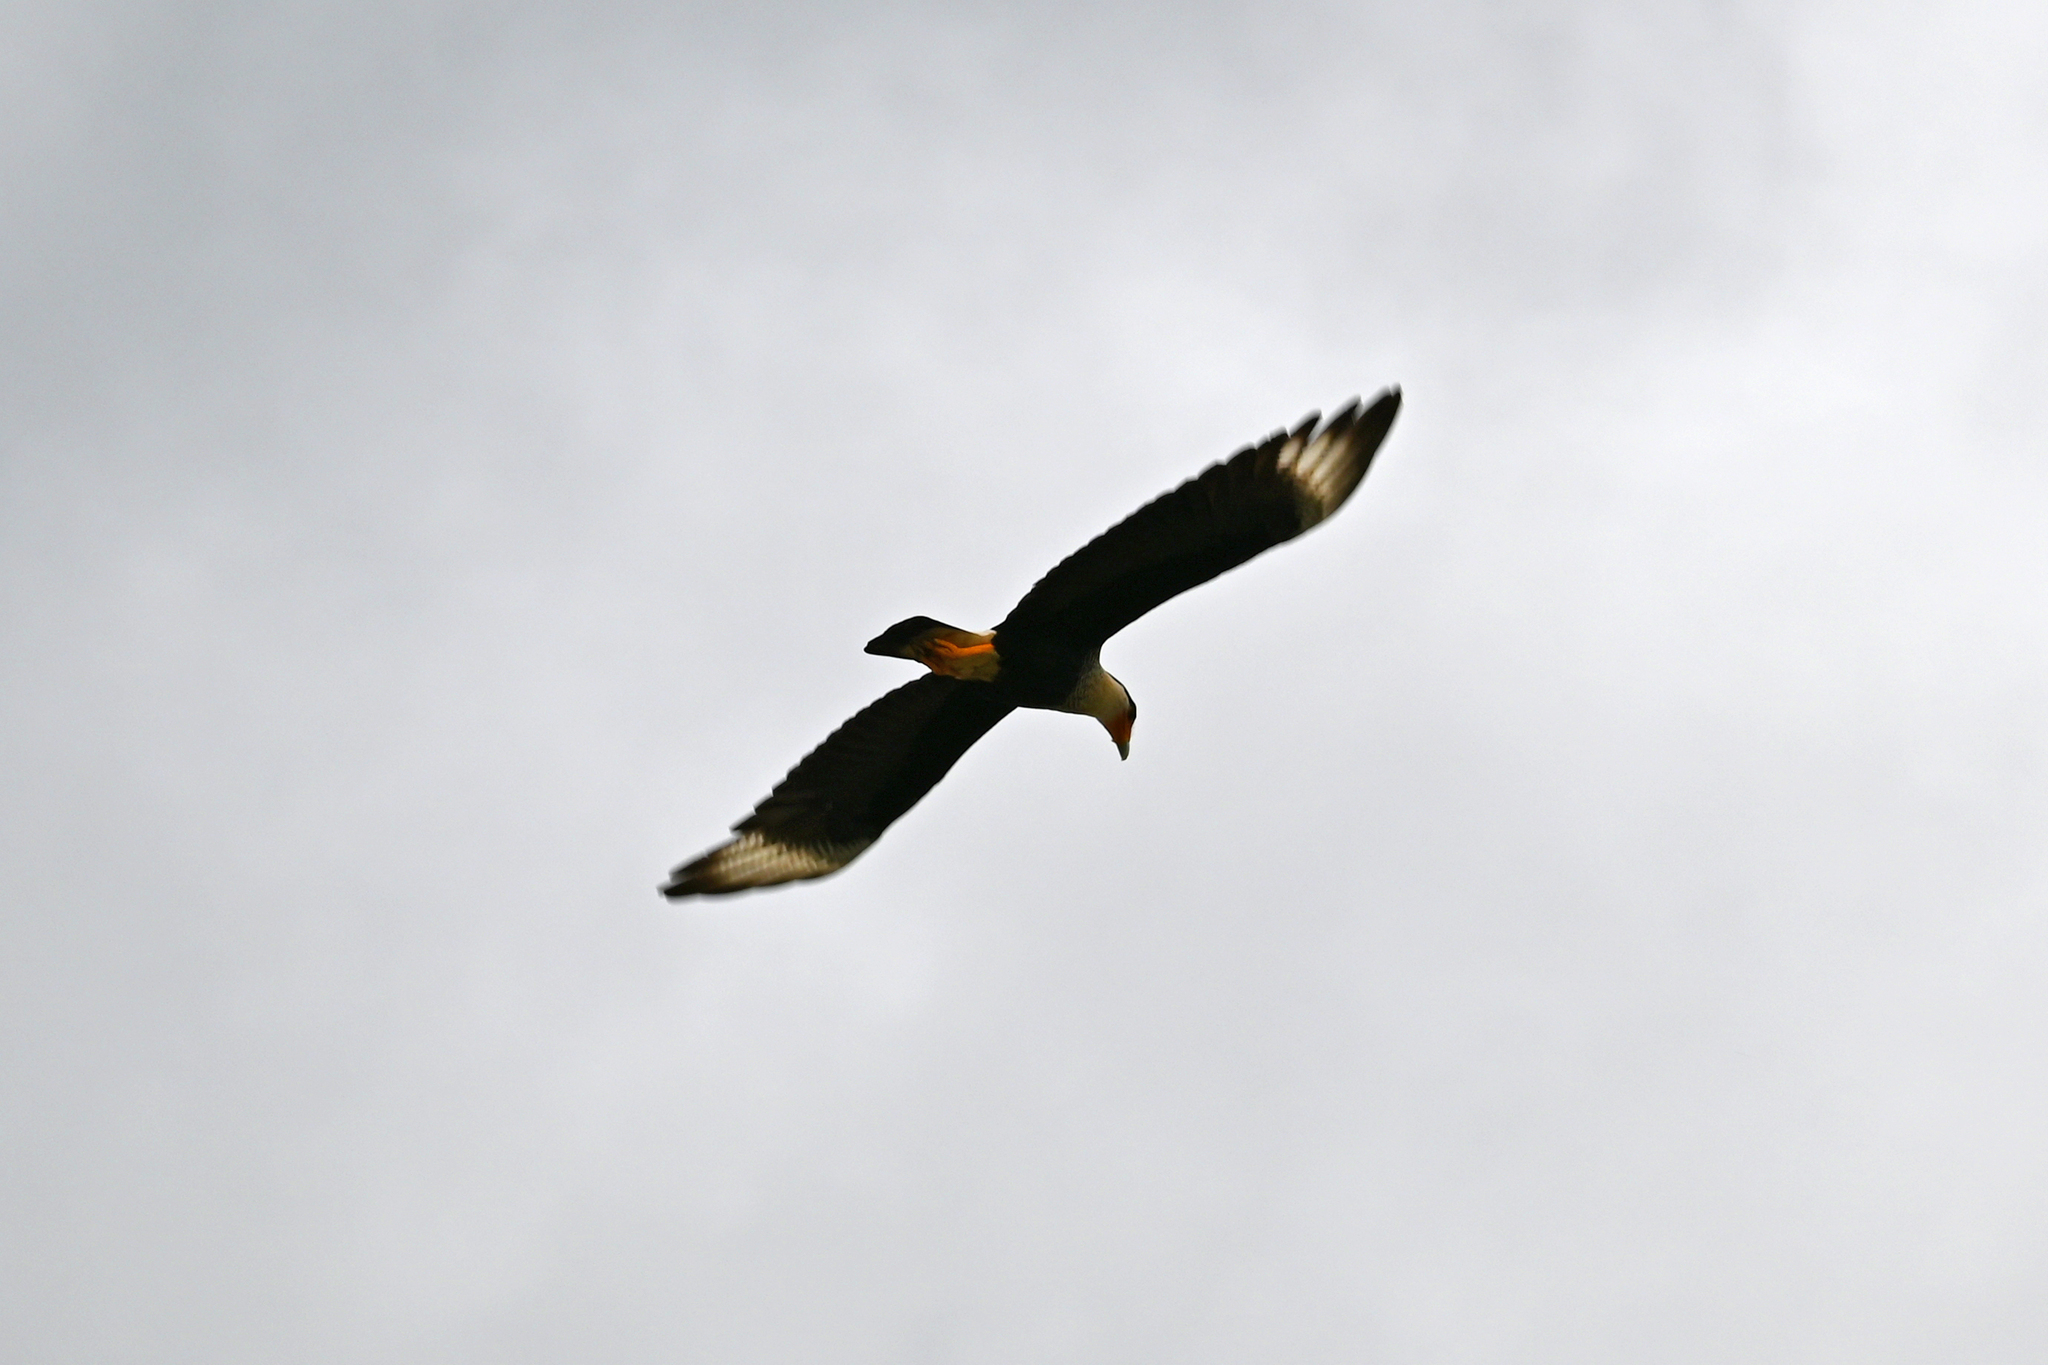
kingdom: Animalia
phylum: Chordata
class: Aves
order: Falconiformes
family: Falconidae
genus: Caracara
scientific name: Caracara plancus
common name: Southern caracara
